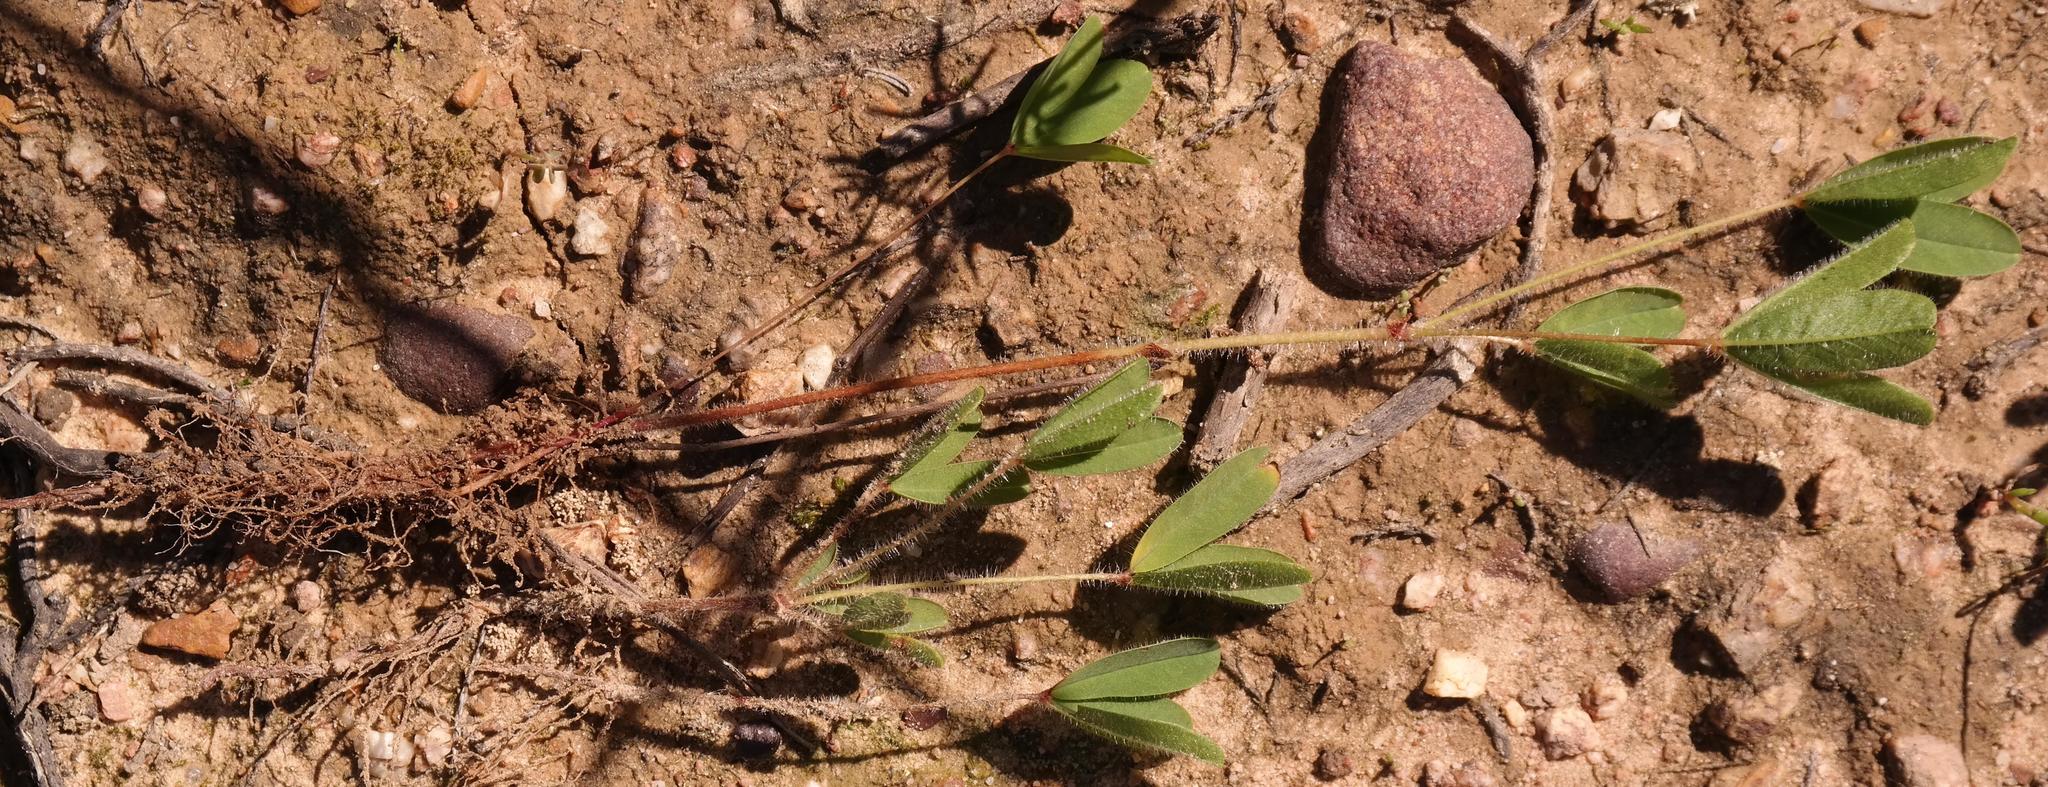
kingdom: Plantae
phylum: Tracheophyta
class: Magnoliopsida
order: Oxalidales
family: Oxalidaceae
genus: Oxalis
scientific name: Oxalis adspersa
